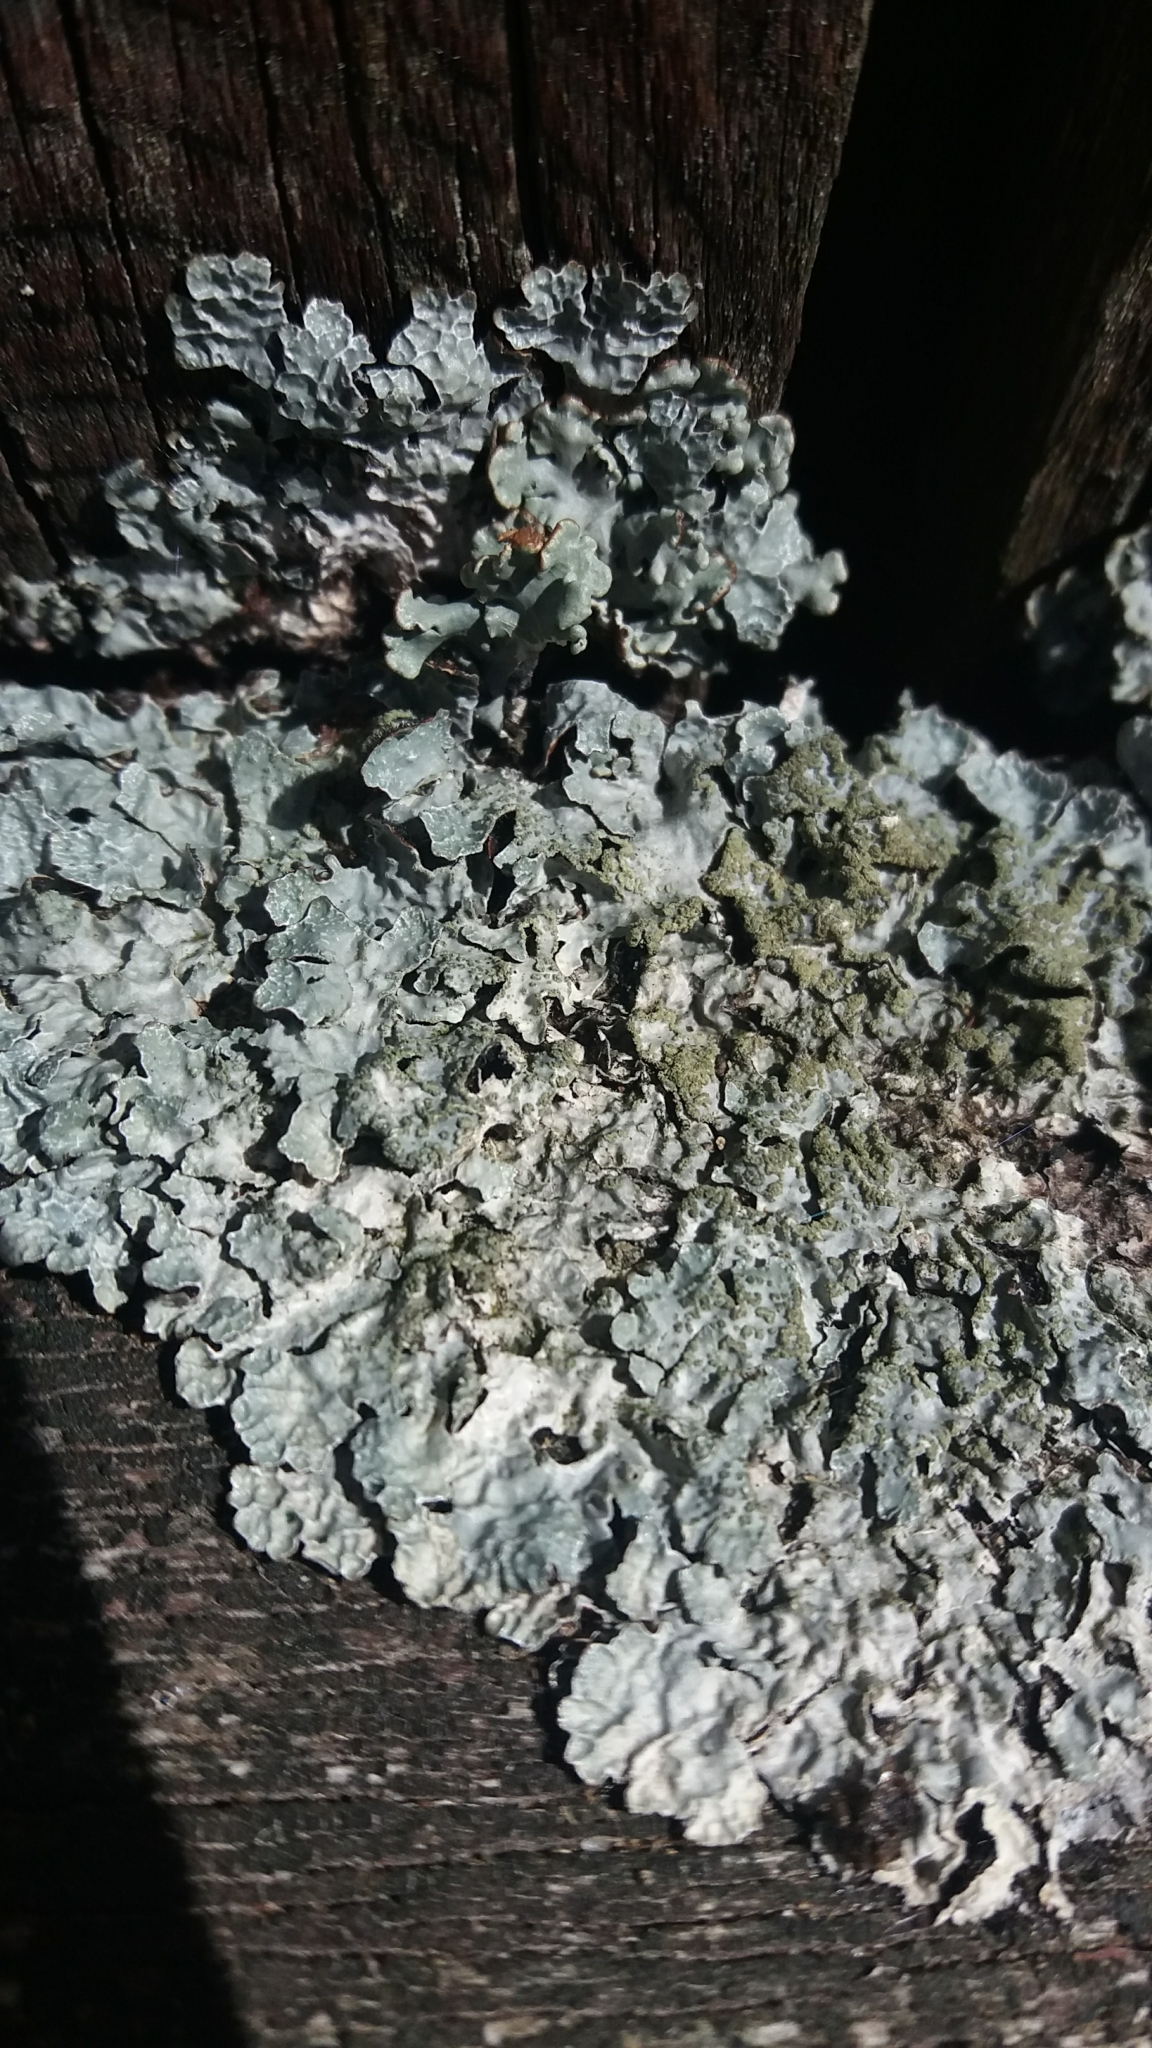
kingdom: Fungi
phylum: Ascomycota
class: Lecanoromycetes
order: Lecanorales
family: Parmeliaceae
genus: Parmelia
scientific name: Parmelia sulcata
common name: Netted shield lichen
